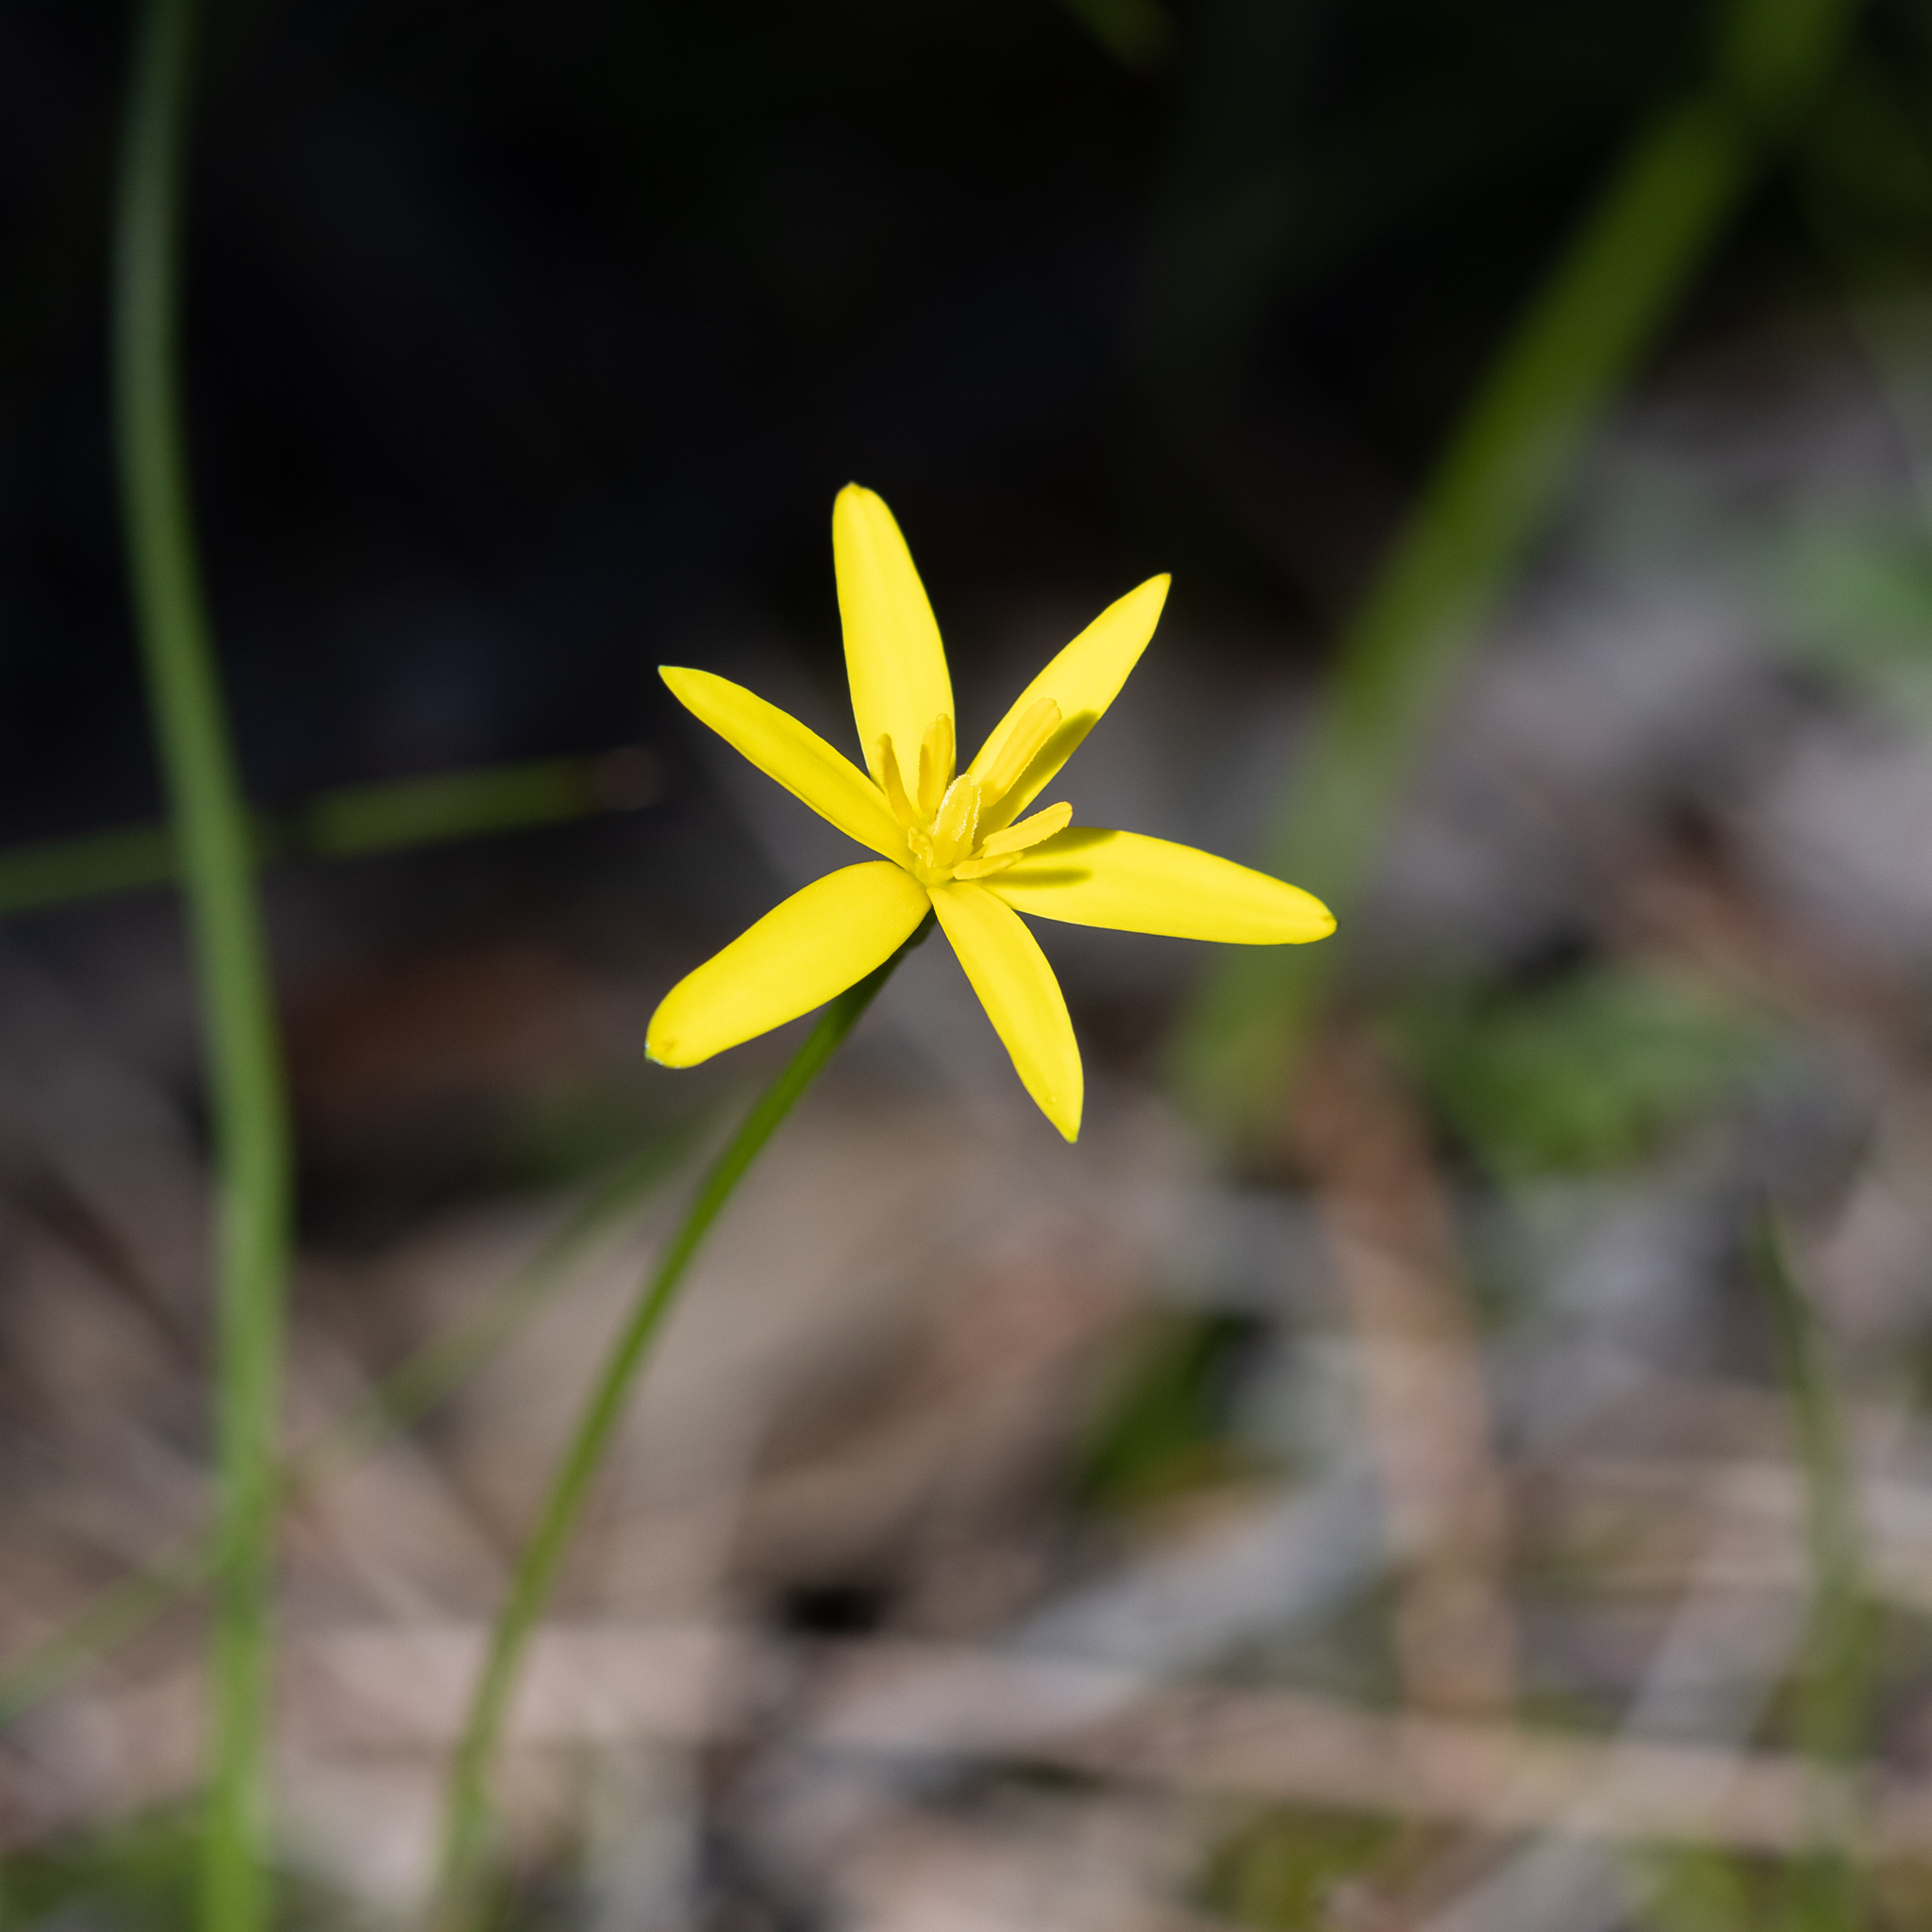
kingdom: Plantae
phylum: Tracheophyta
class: Liliopsida
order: Asparagales
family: Hypoxidaceae
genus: Pauridia
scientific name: Pauridia vaginata
